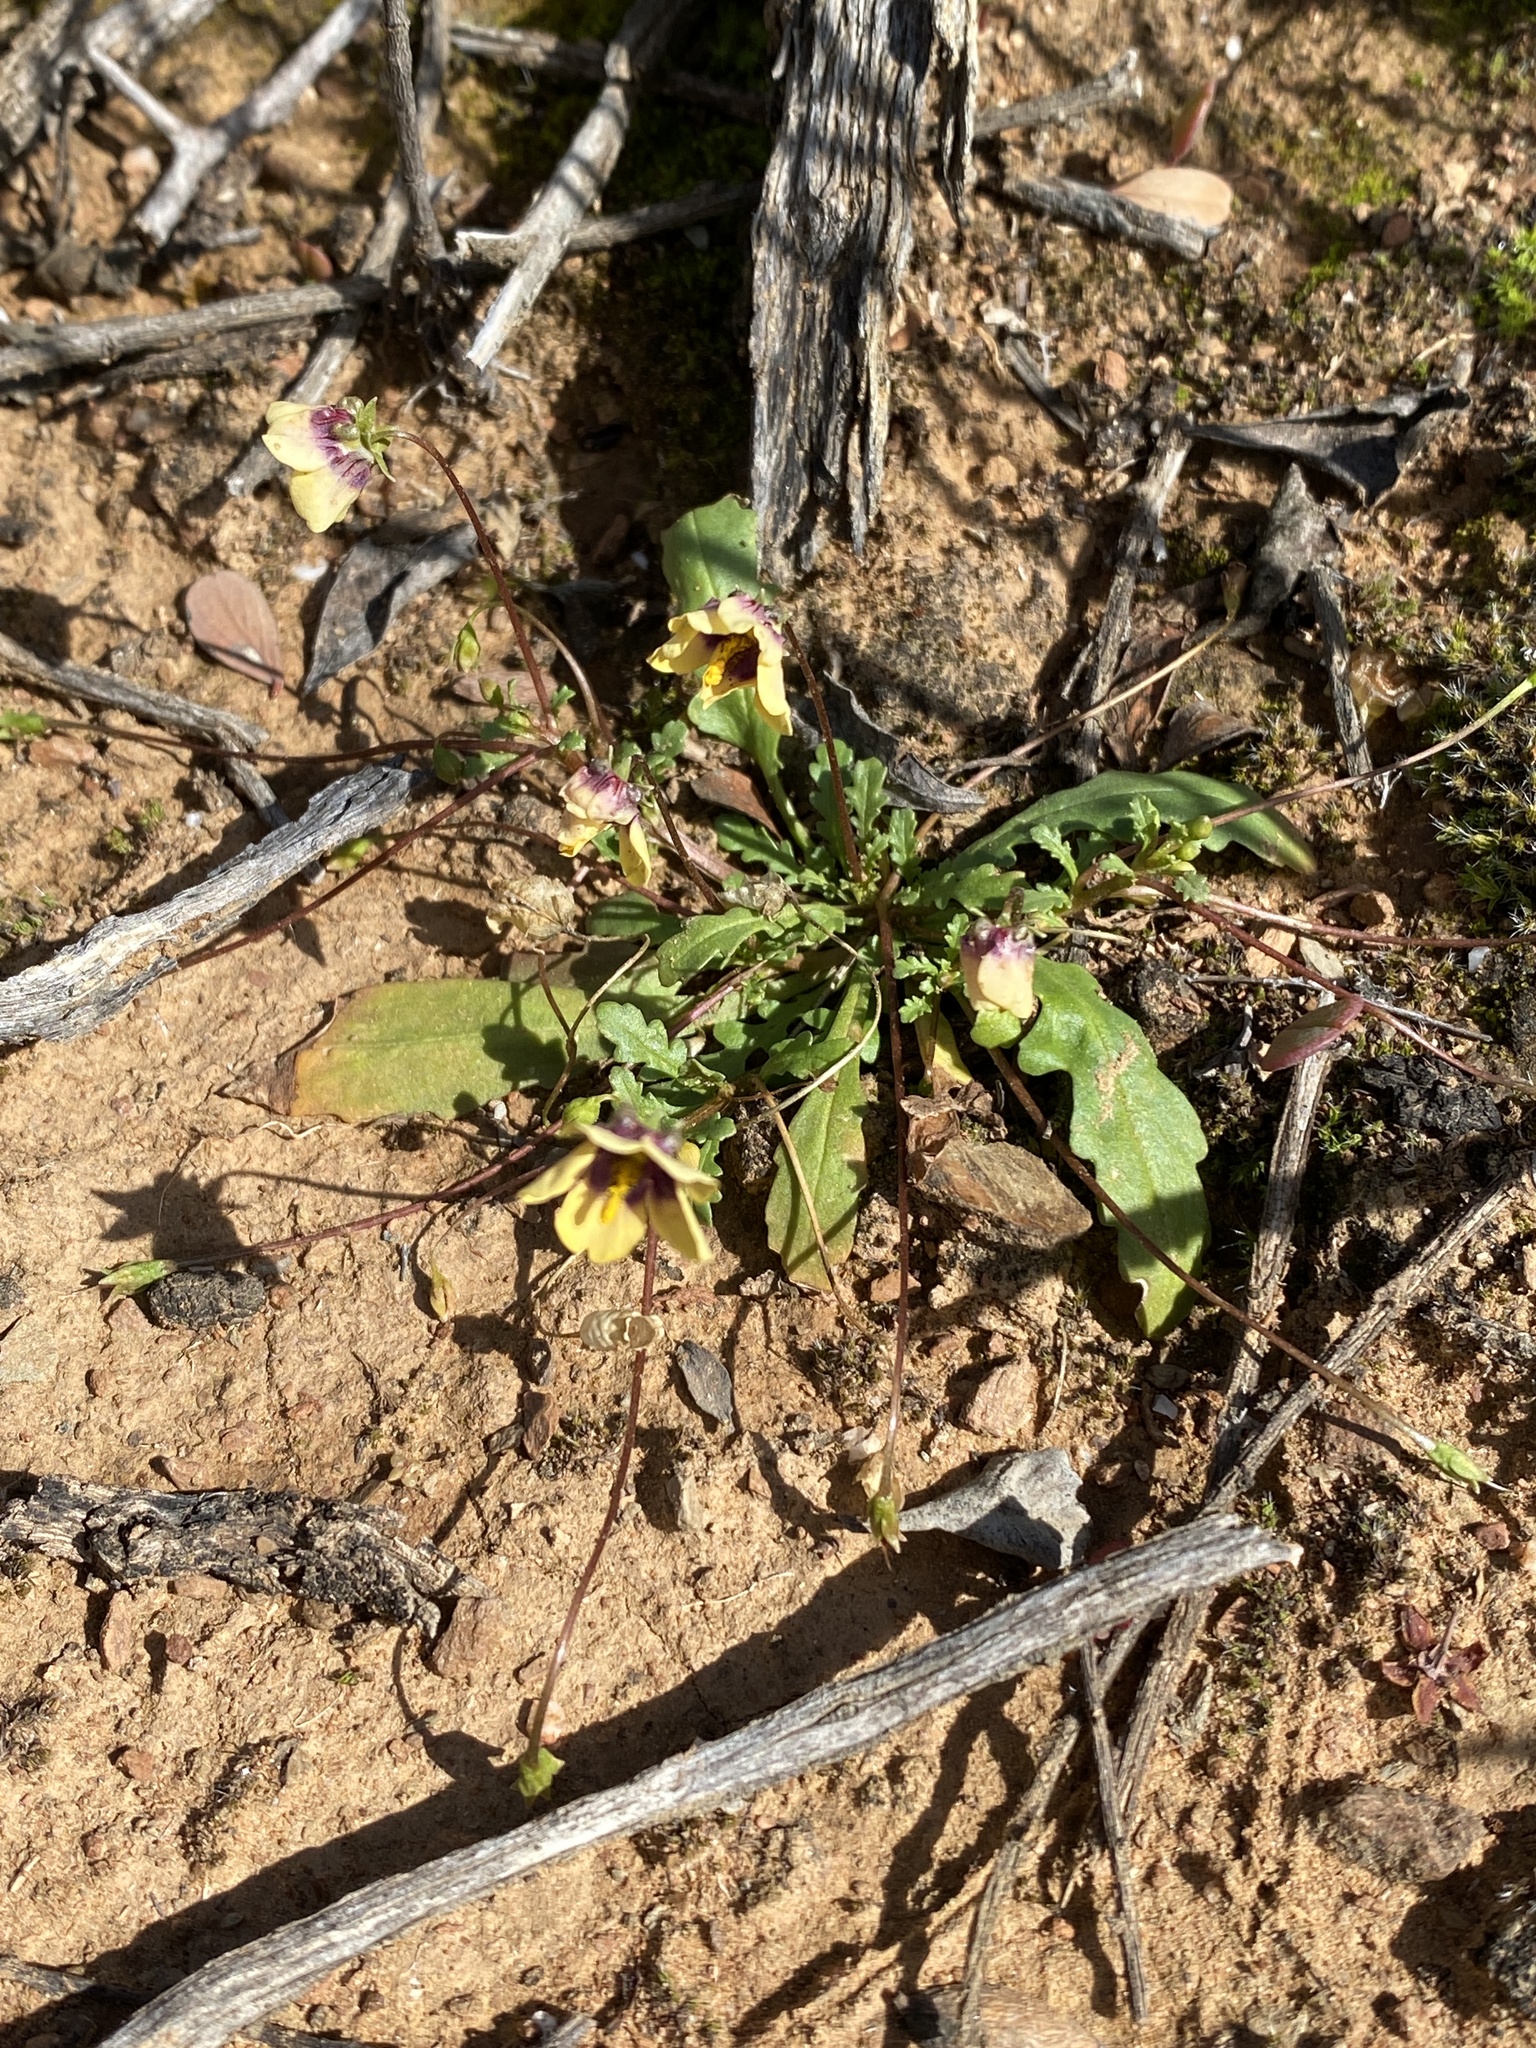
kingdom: Plantae
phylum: Tracheophyta
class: Magnoliopsida
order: Lamiales
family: Scrophulariaceae
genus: Diascia
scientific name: Diascia bicolor
